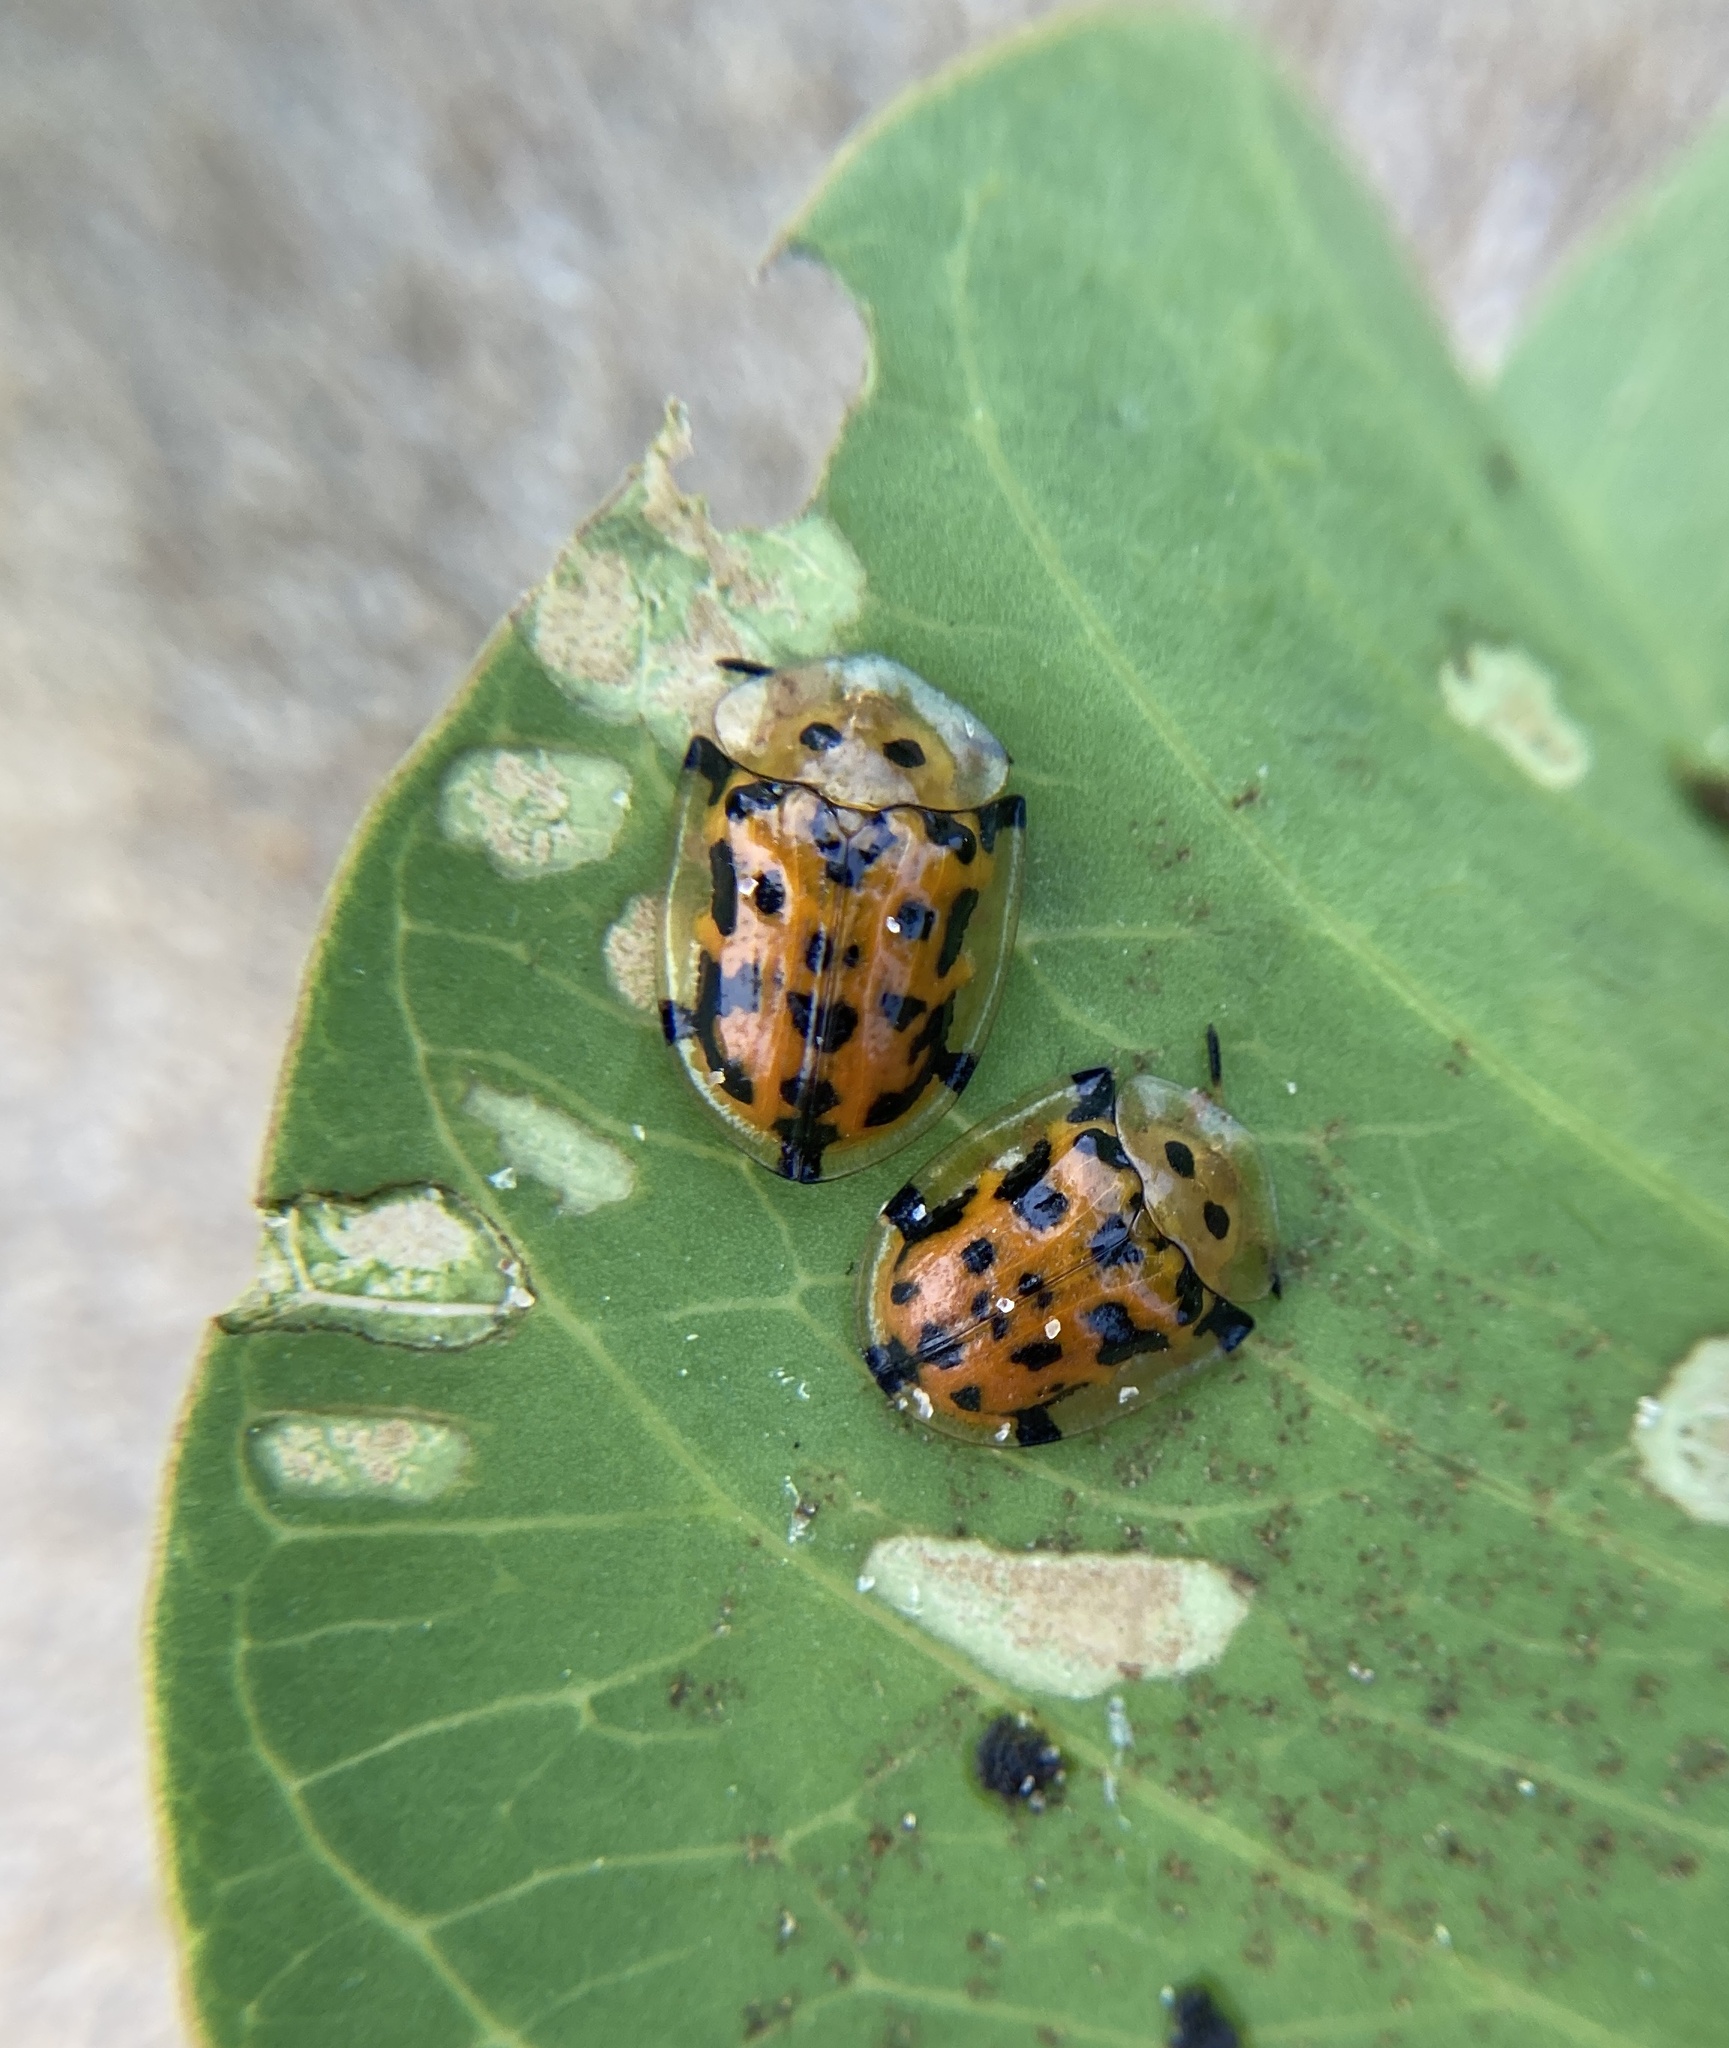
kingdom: Animalia
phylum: Arthropoda
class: Insecta
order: Coleoptera
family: Chrysomelidae
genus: Aspidimorpha
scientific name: Aspidimorpha deusta
